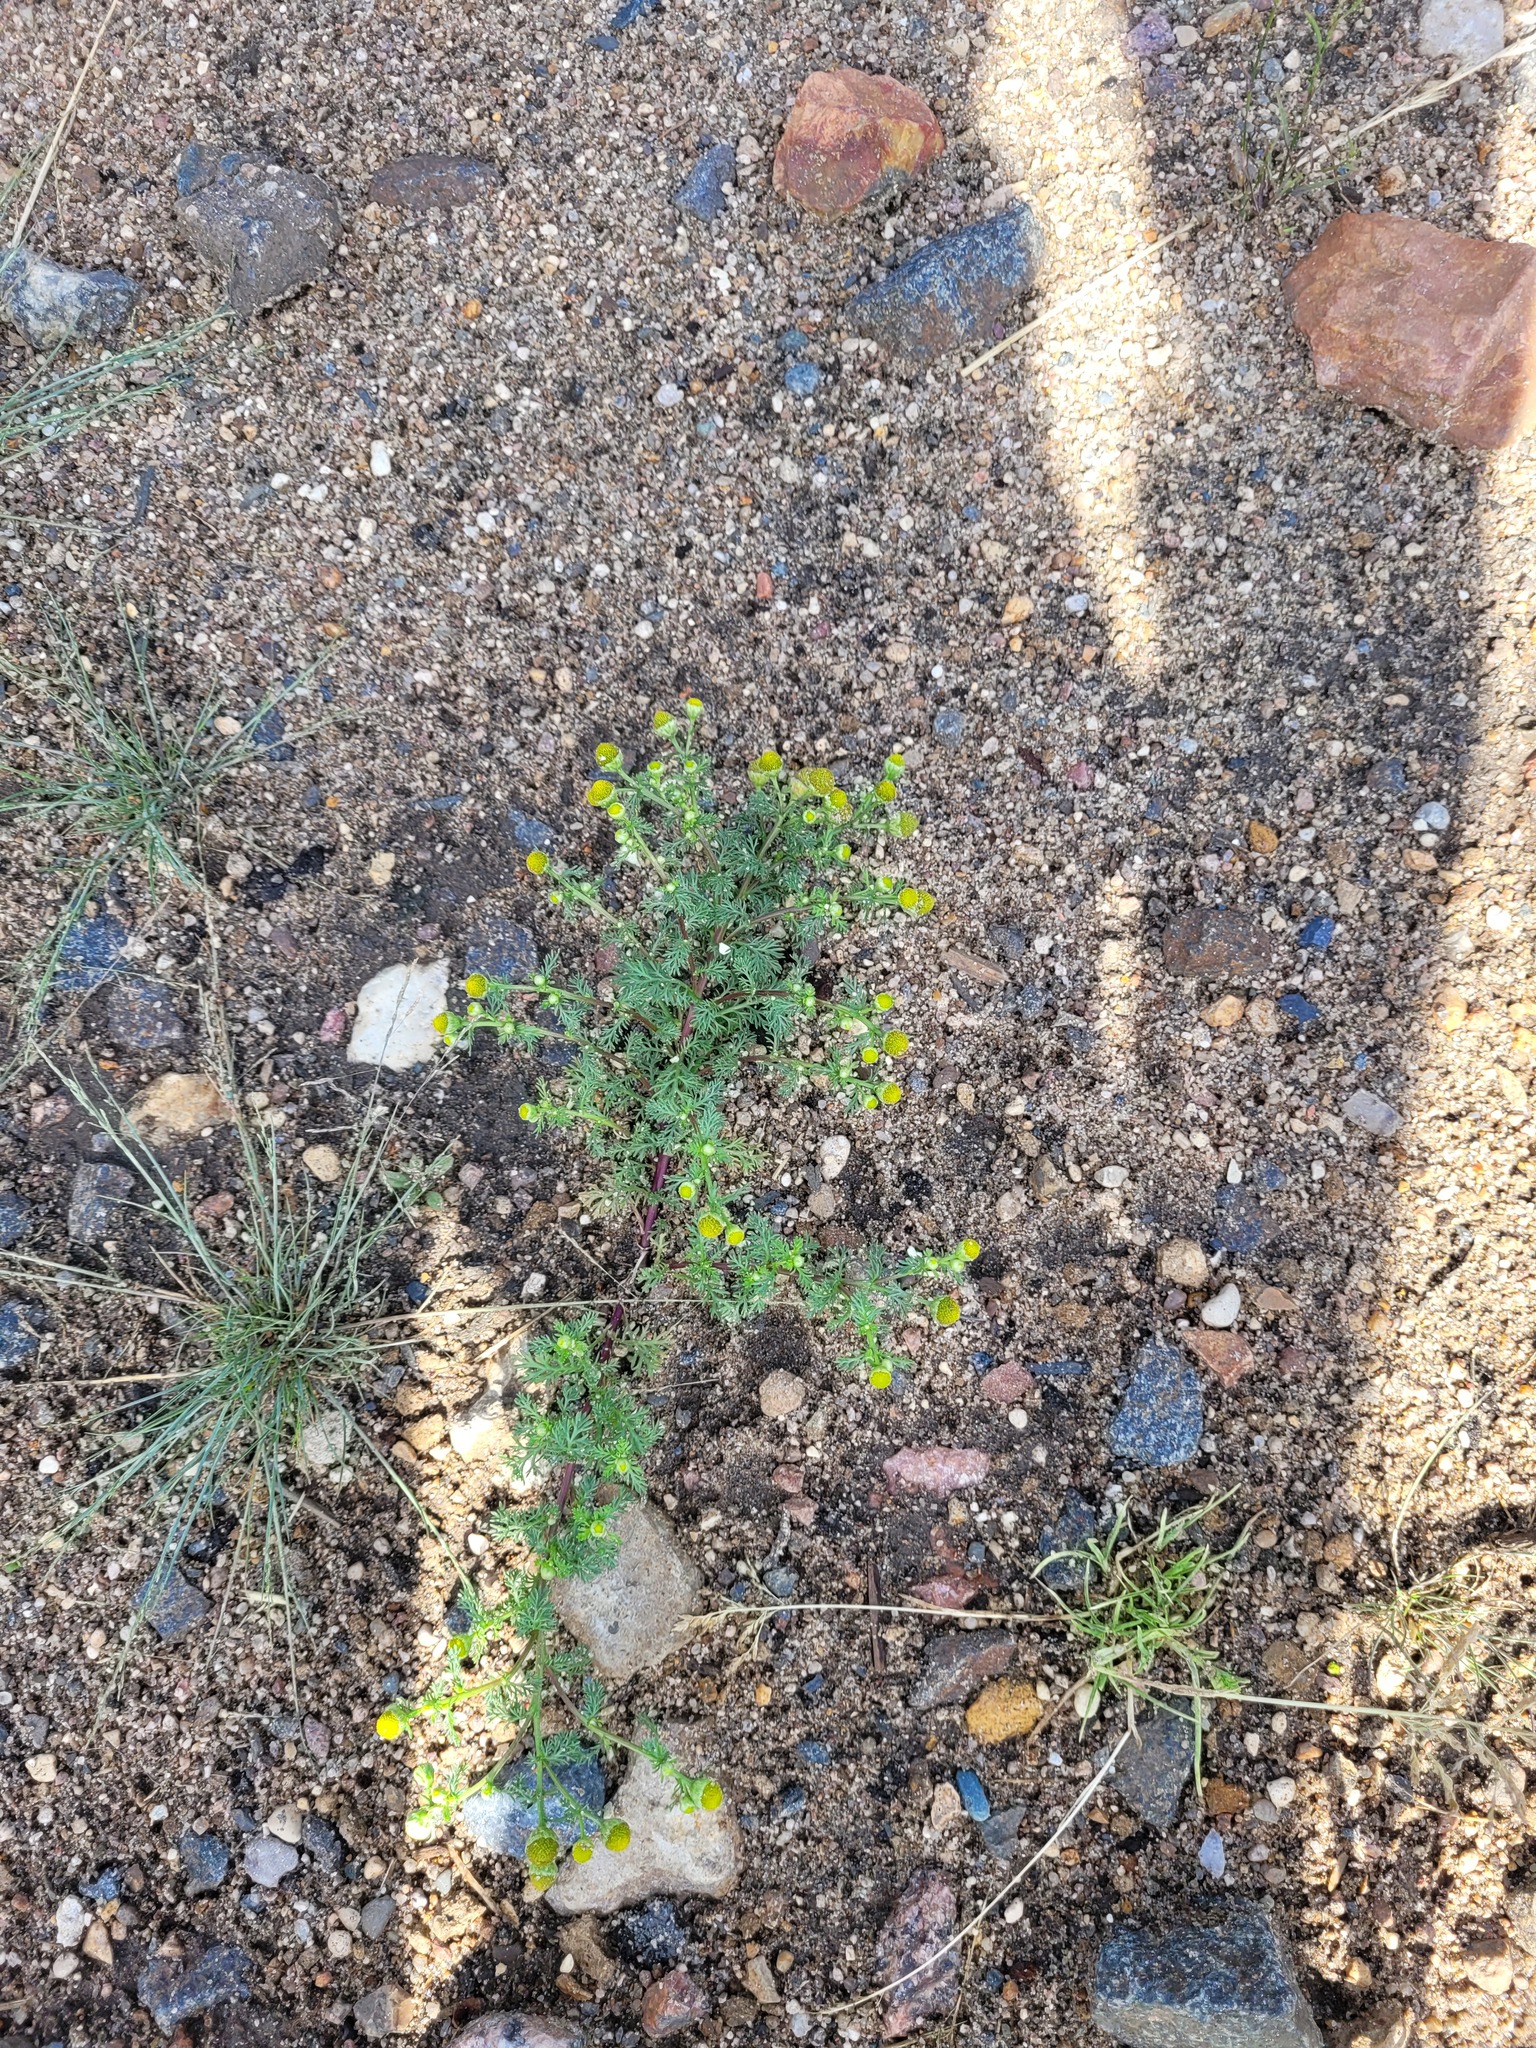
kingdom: Plantae
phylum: Tracheophyta
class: Magnoliopsida
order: Asterales
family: Asteraceae
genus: Matricaria
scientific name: Matricaria discoidea
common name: Disc mayweed
